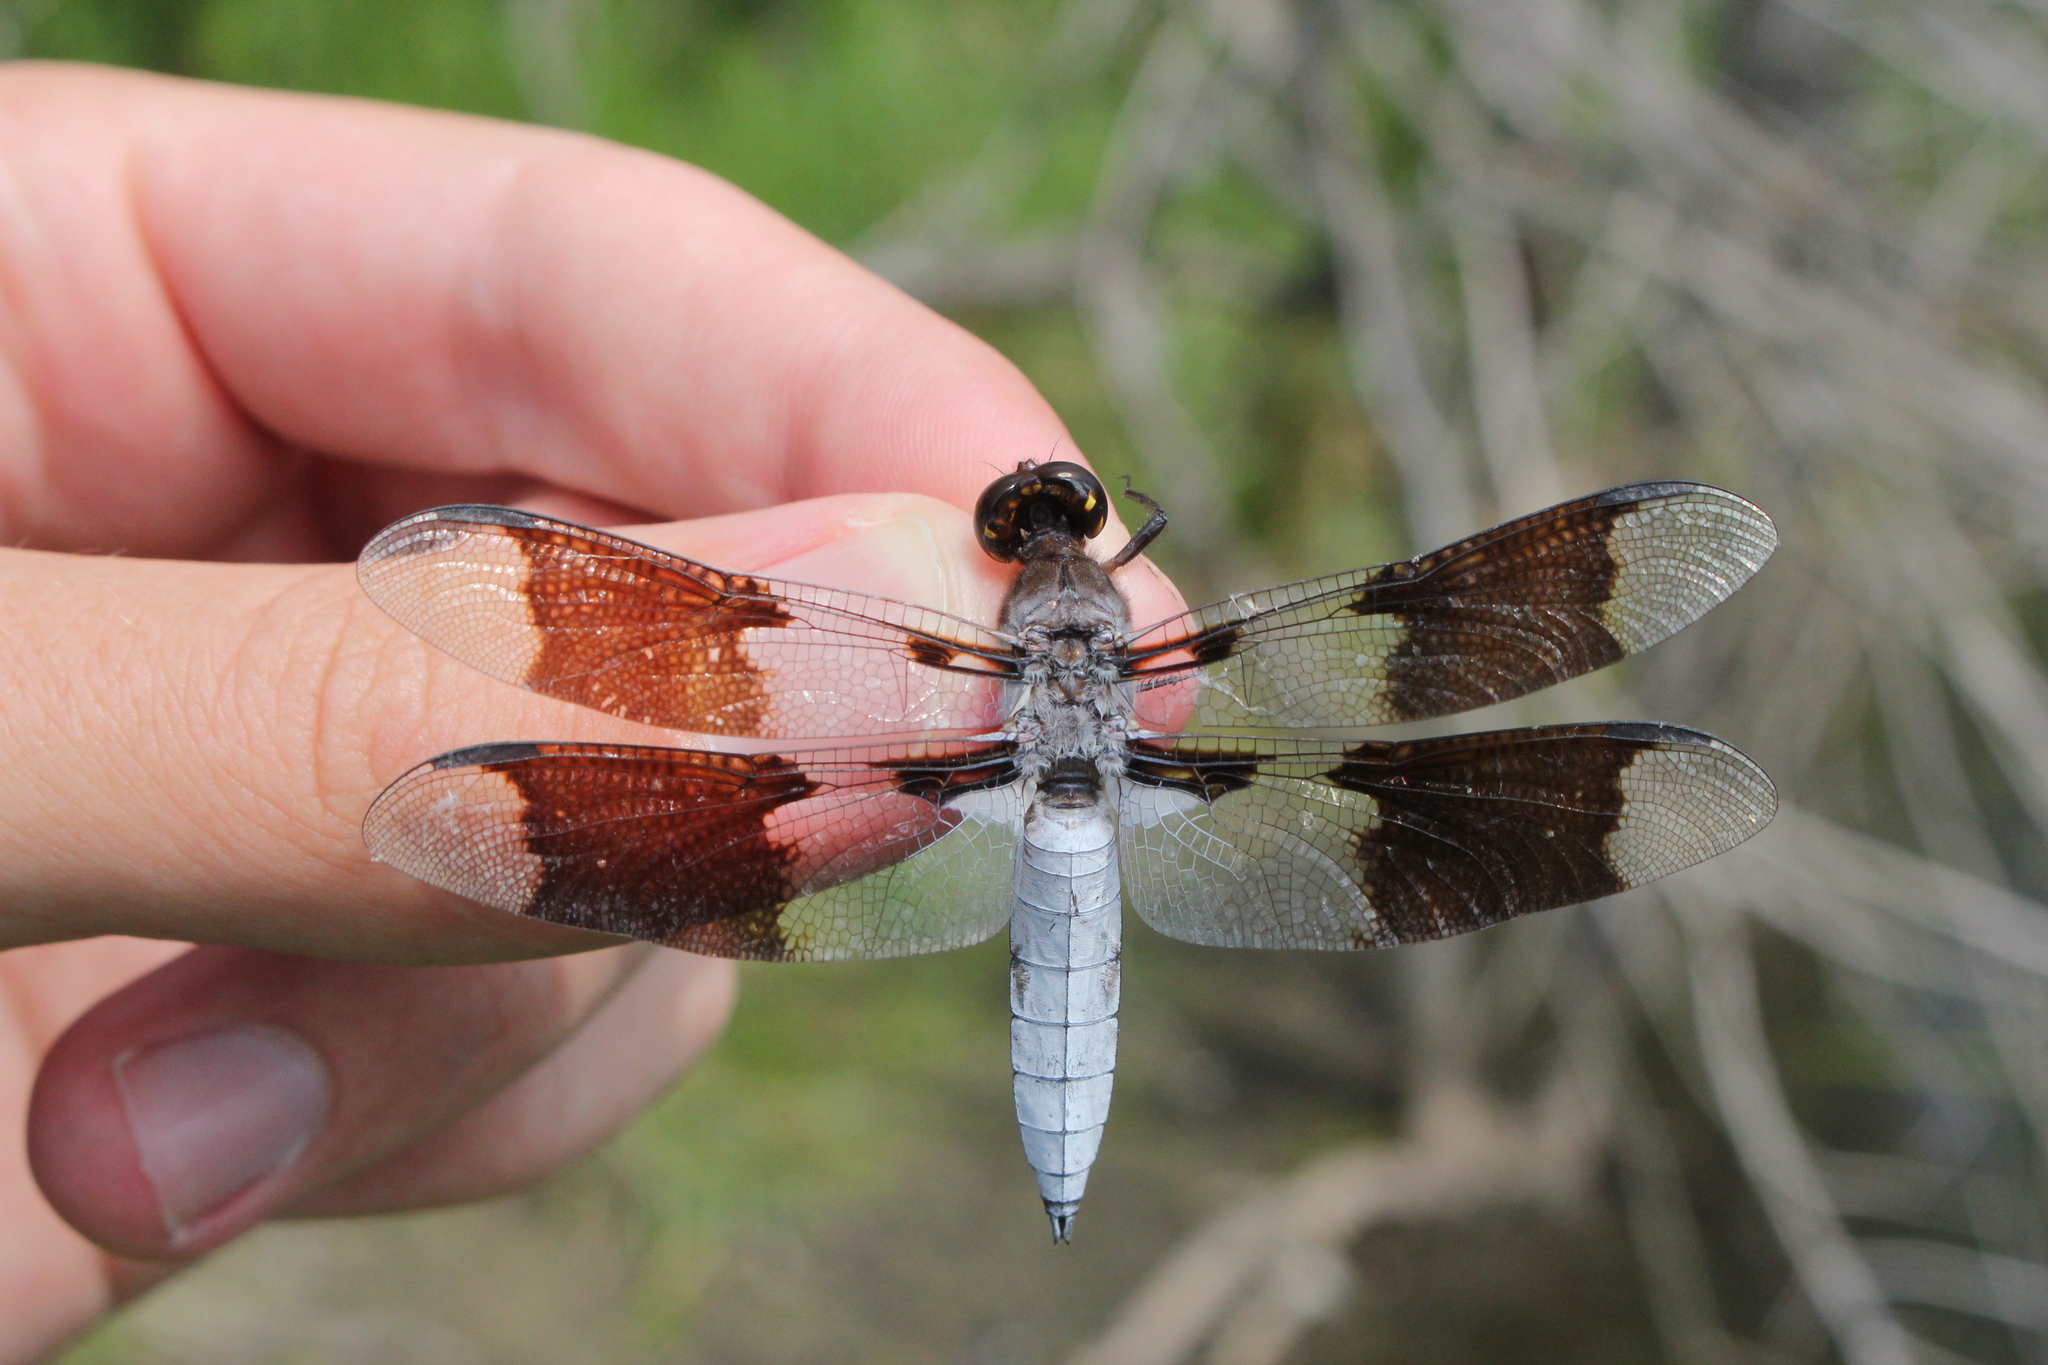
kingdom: Animalia
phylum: Arthropoda
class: Insecta
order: Odonata
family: Libellulidae
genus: Plathemis
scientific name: Plathemis lydia
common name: Common whitetail
